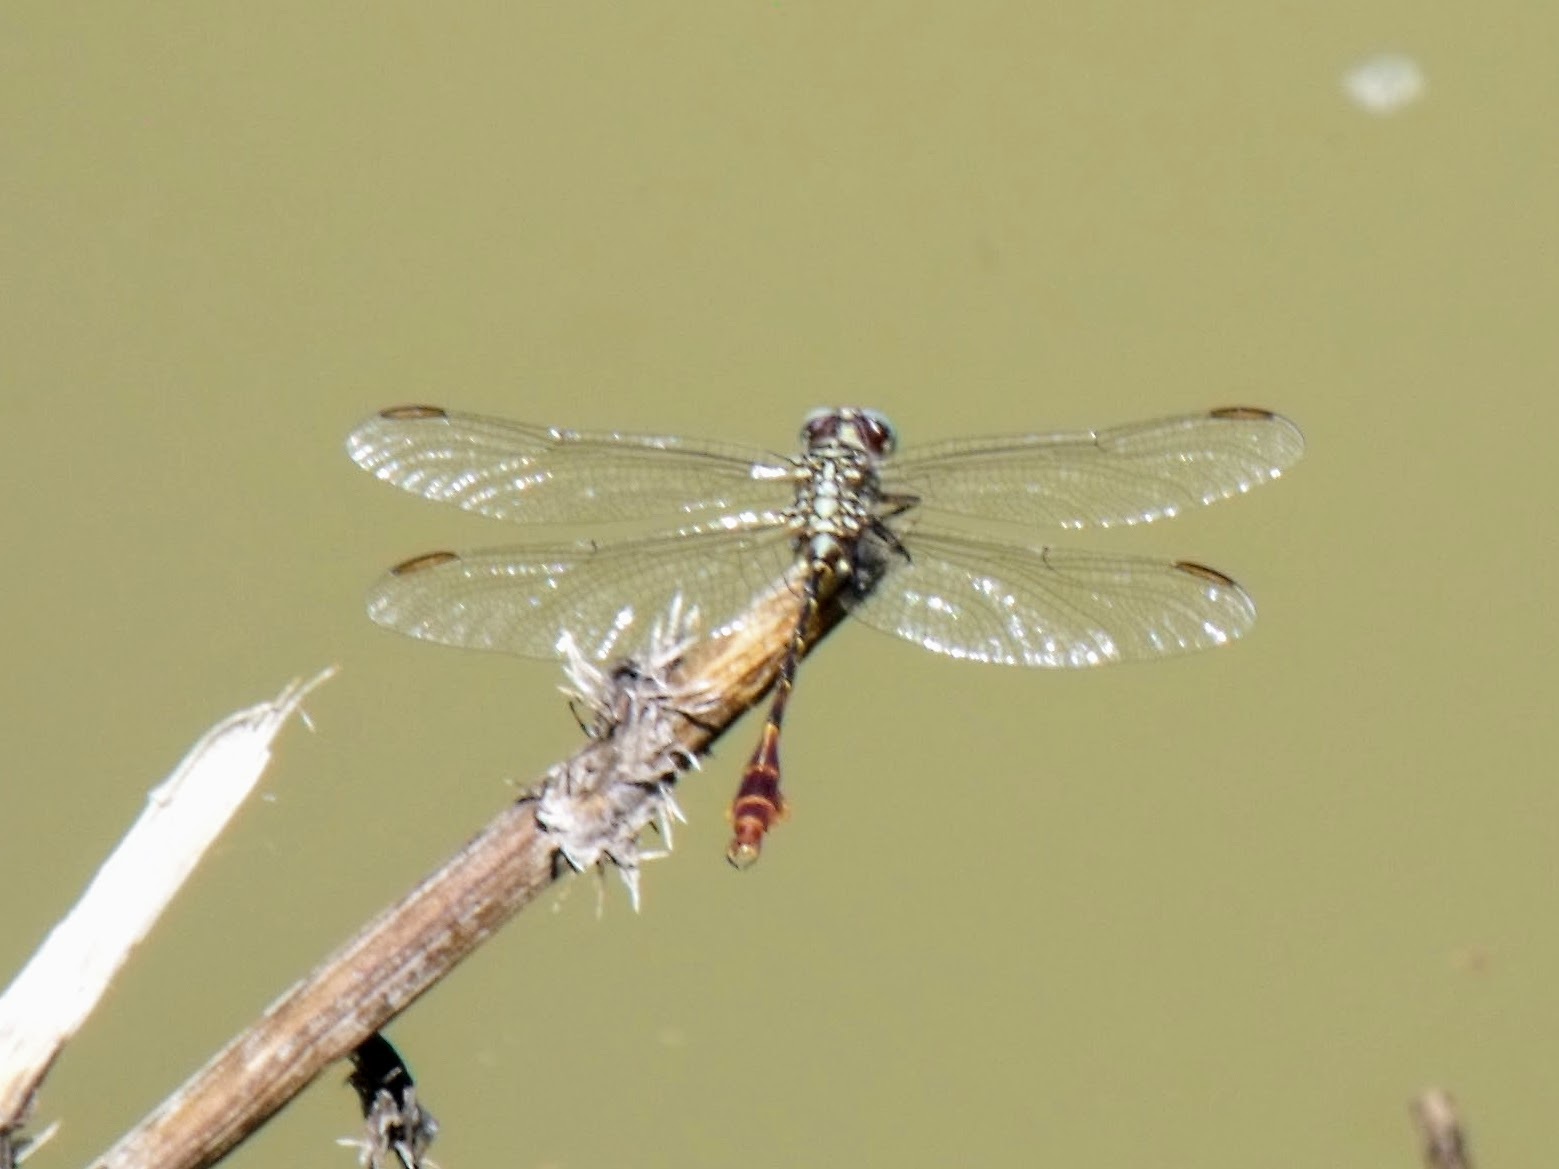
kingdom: Animalia
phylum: Arthropoda
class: Insecta
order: Odonata
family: Gomphidae
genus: Aphylla
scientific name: Aphylla protracta
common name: Narrow-striped forceptail
